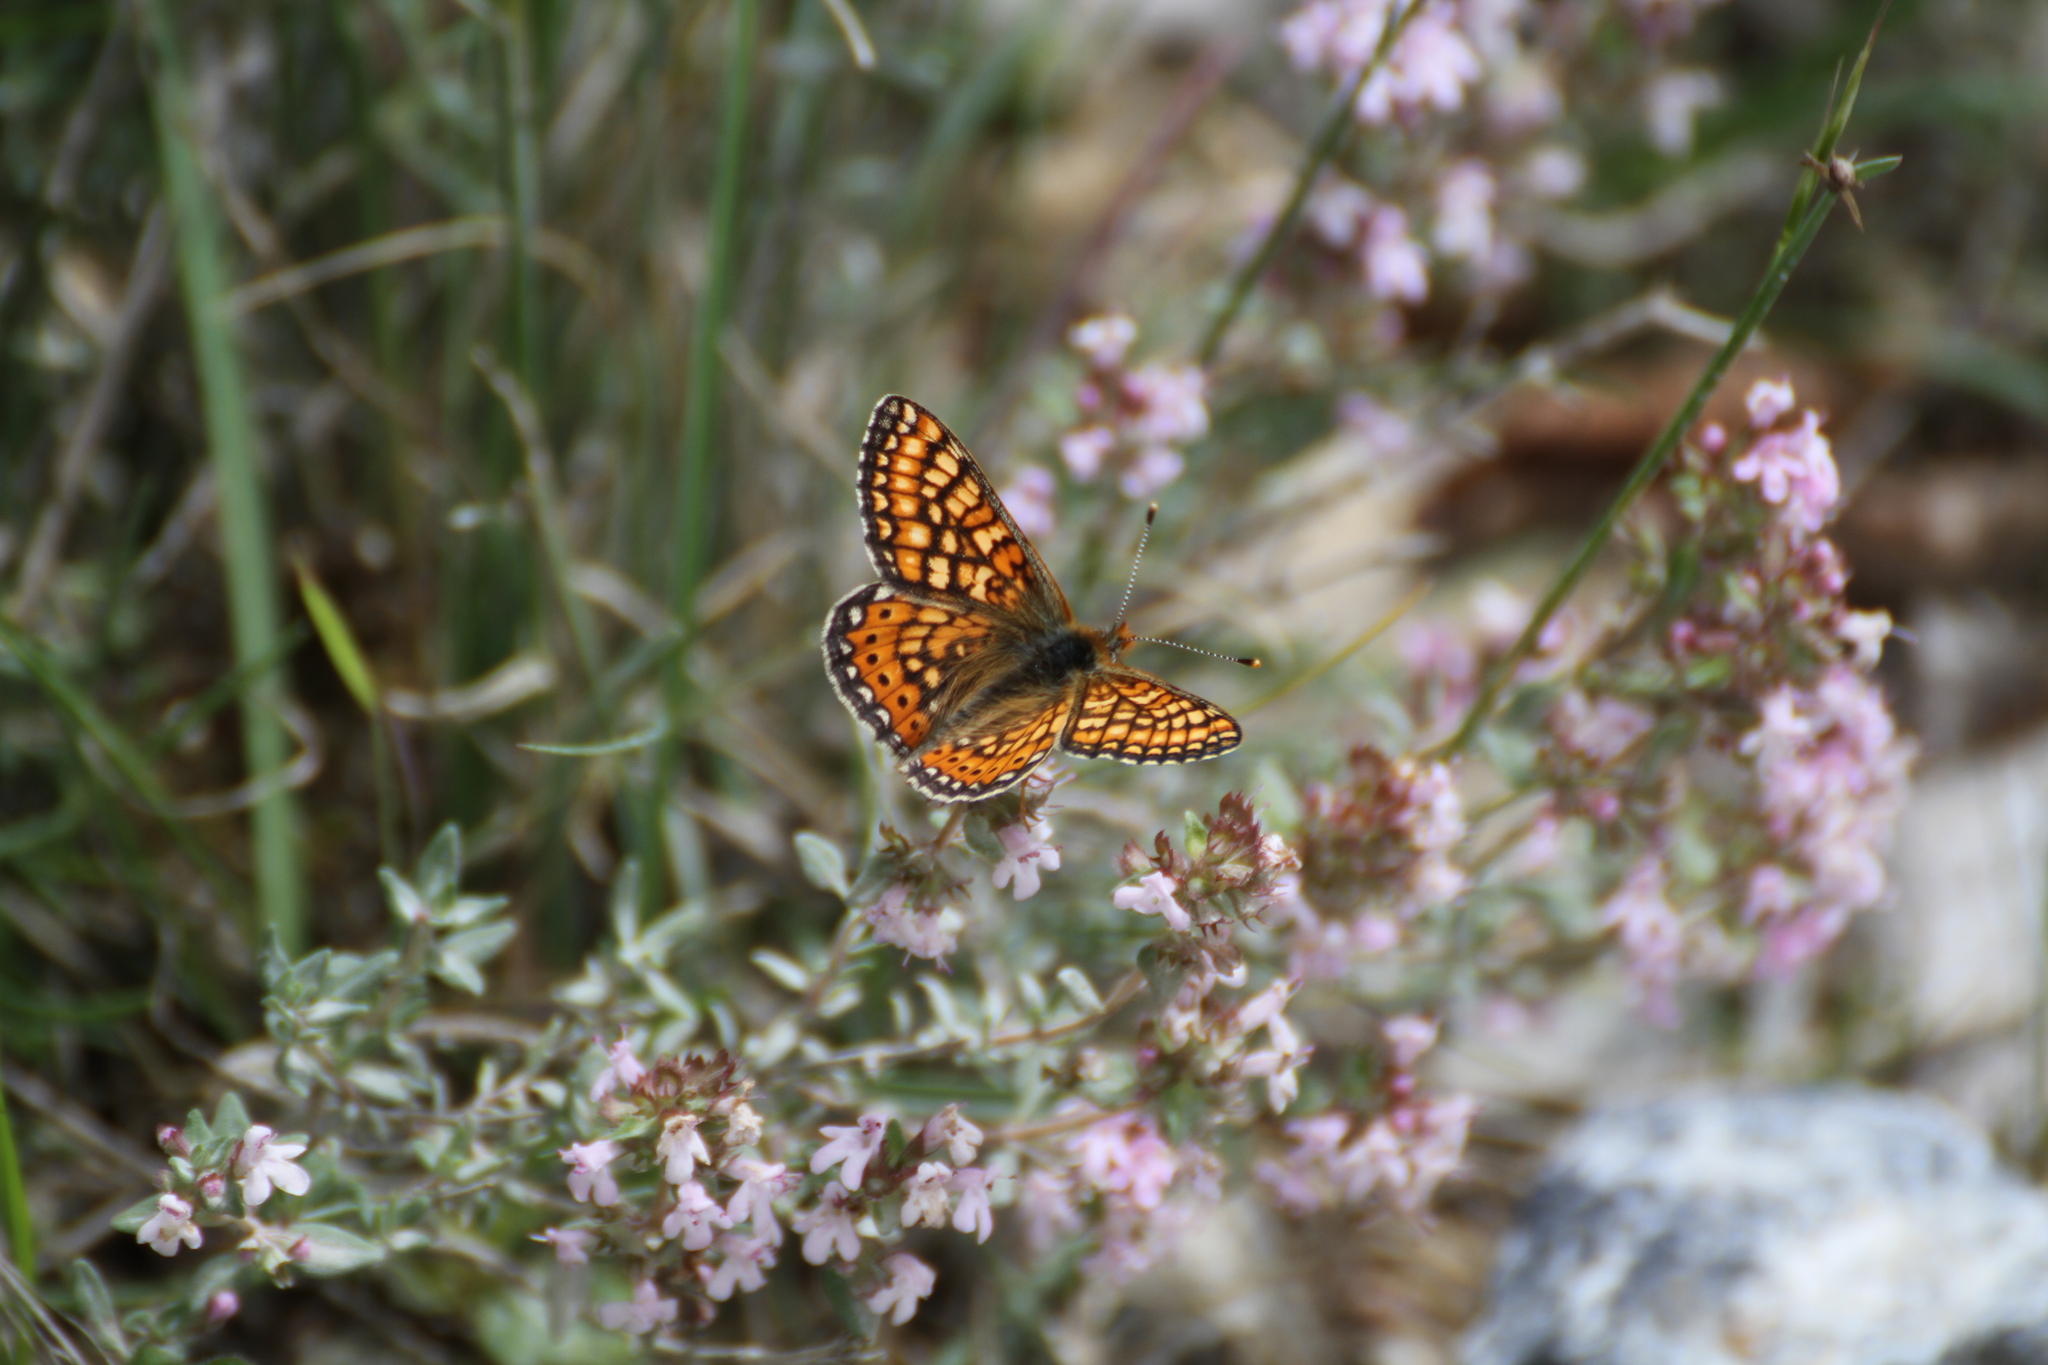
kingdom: Animalia
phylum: Arthropoda
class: Insecta
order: Lepidoptera
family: Nymphalidae
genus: Euphydryas
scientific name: Euphydryas aurinia
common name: Marsh fritillary
